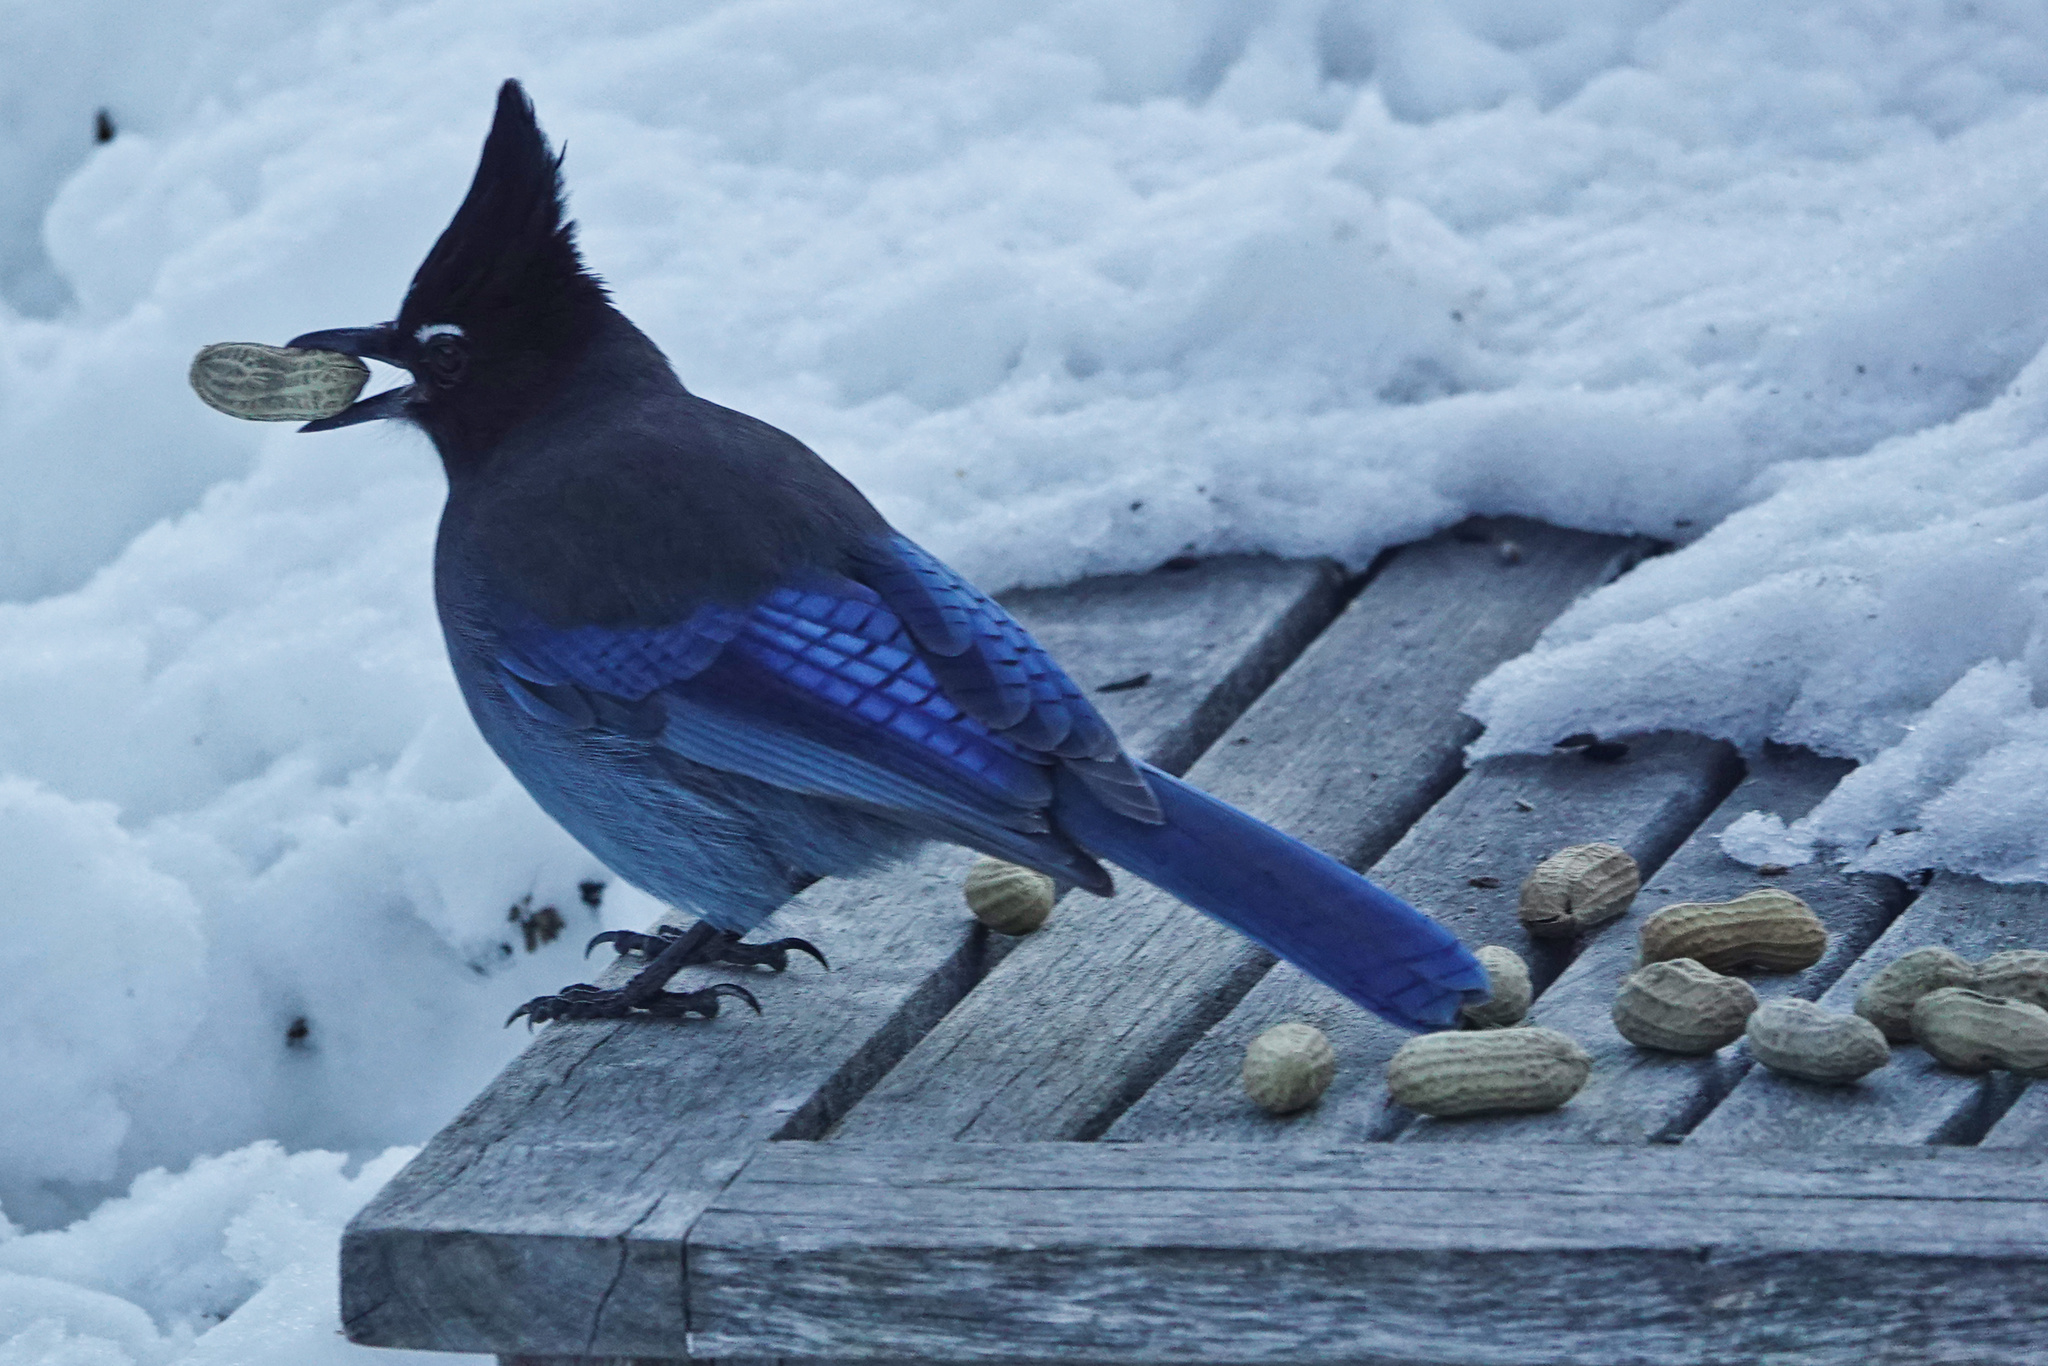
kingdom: Animalia
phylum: Chordata
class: Aves
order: Passeriformes
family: Corvidae
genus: Cyanocitta
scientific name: Cyanocitta stelleri
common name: Steller's jay
